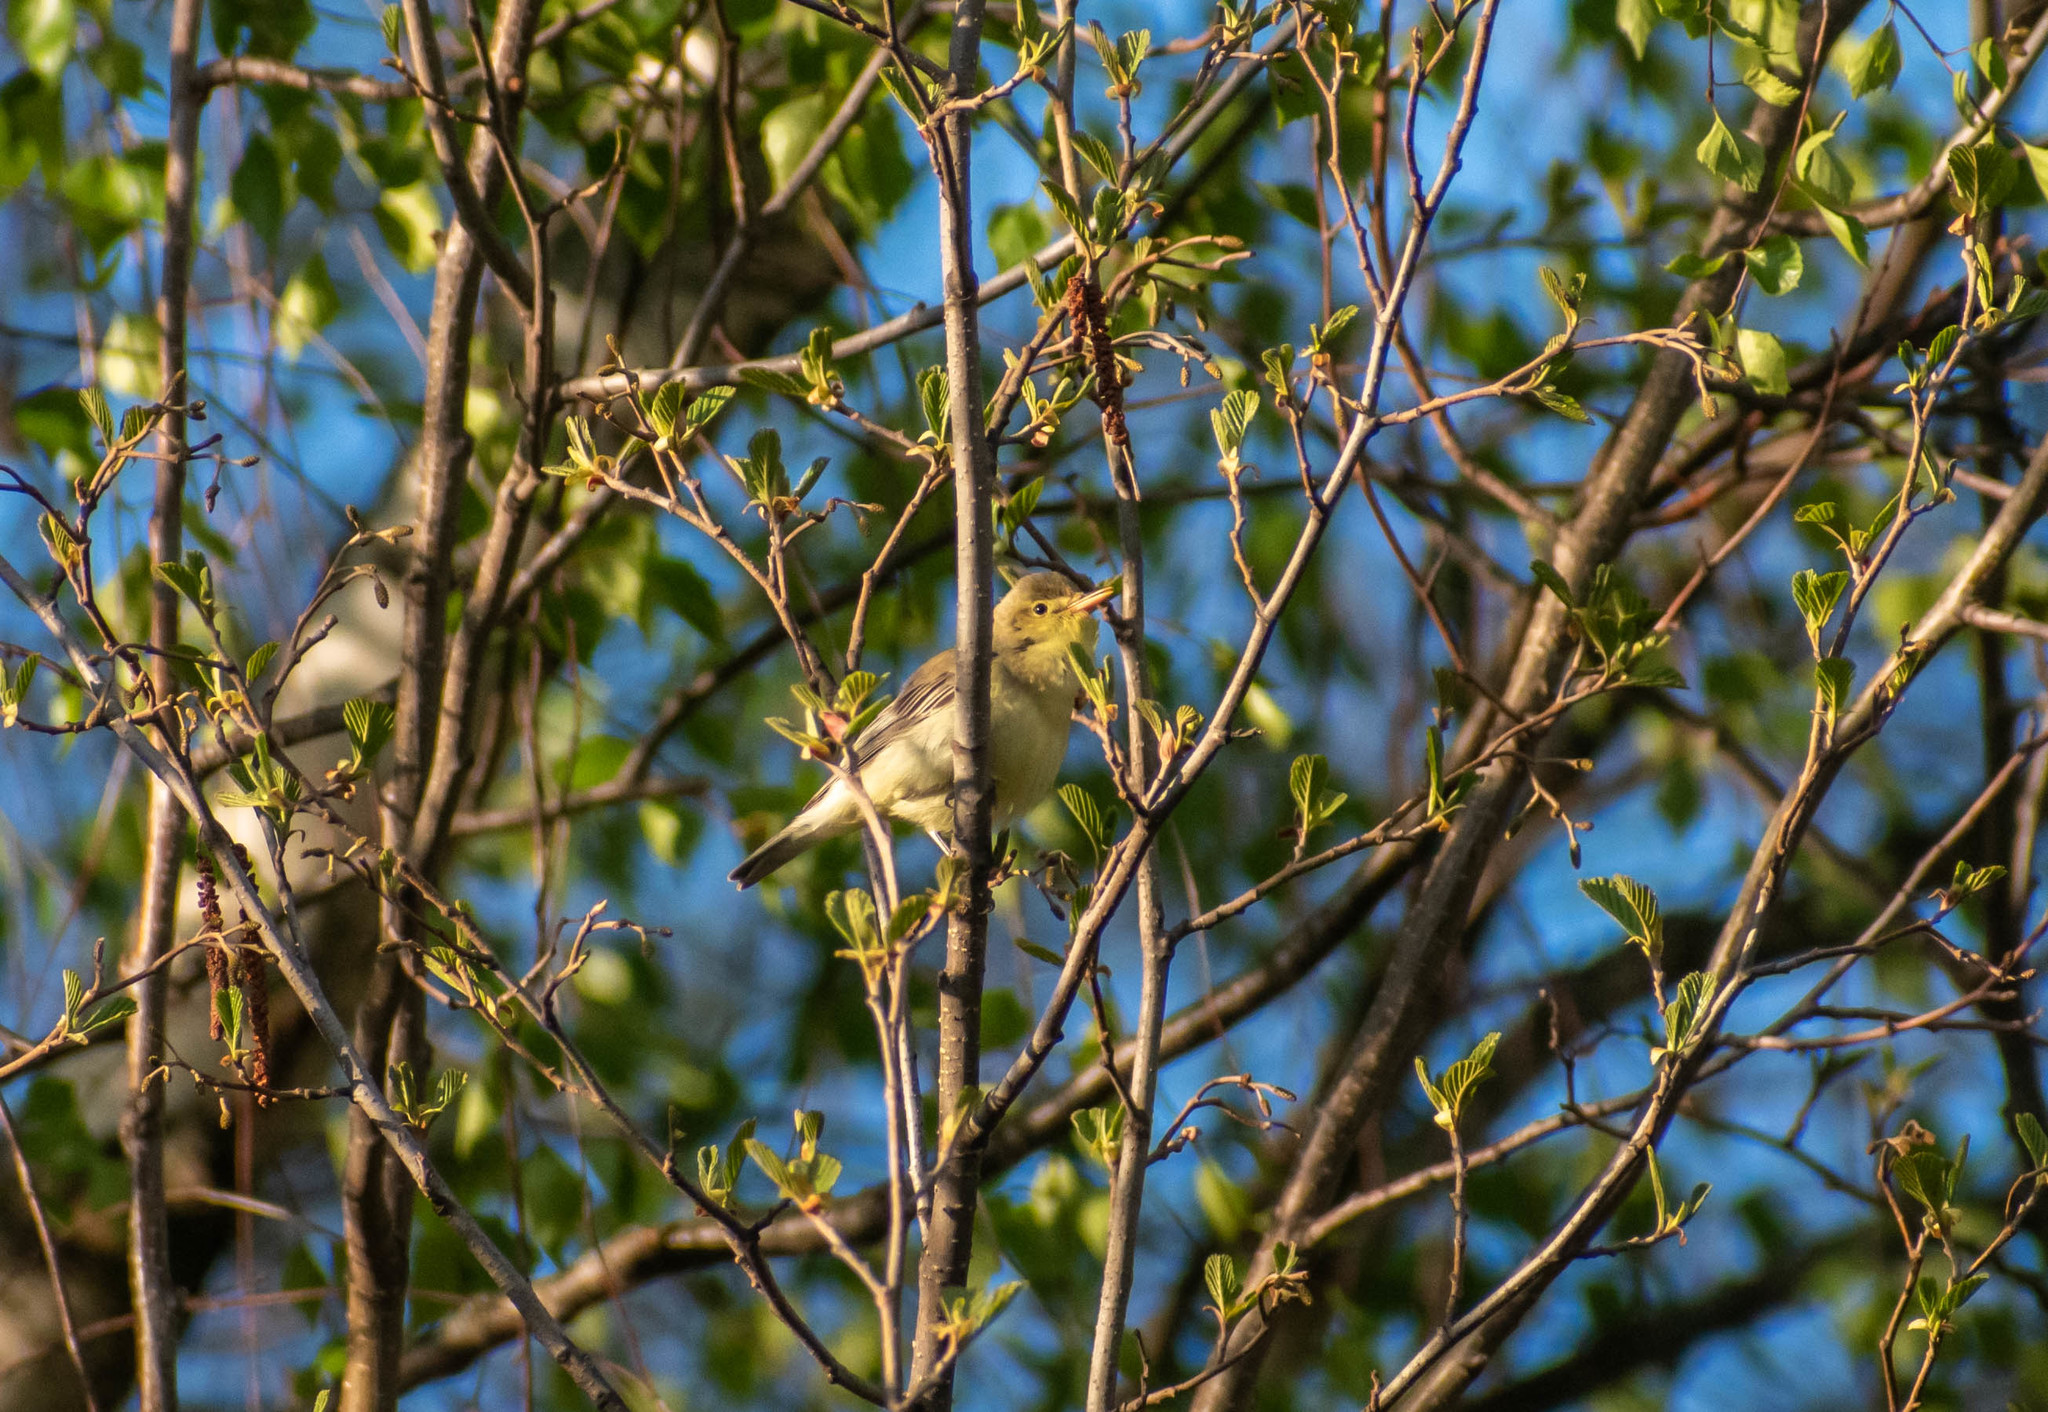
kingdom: Animalia
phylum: Chordata
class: Aves
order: Passeriformes
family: Acrocephalidae
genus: Hippolais
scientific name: Hippolais icterina
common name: Icterine warbler
